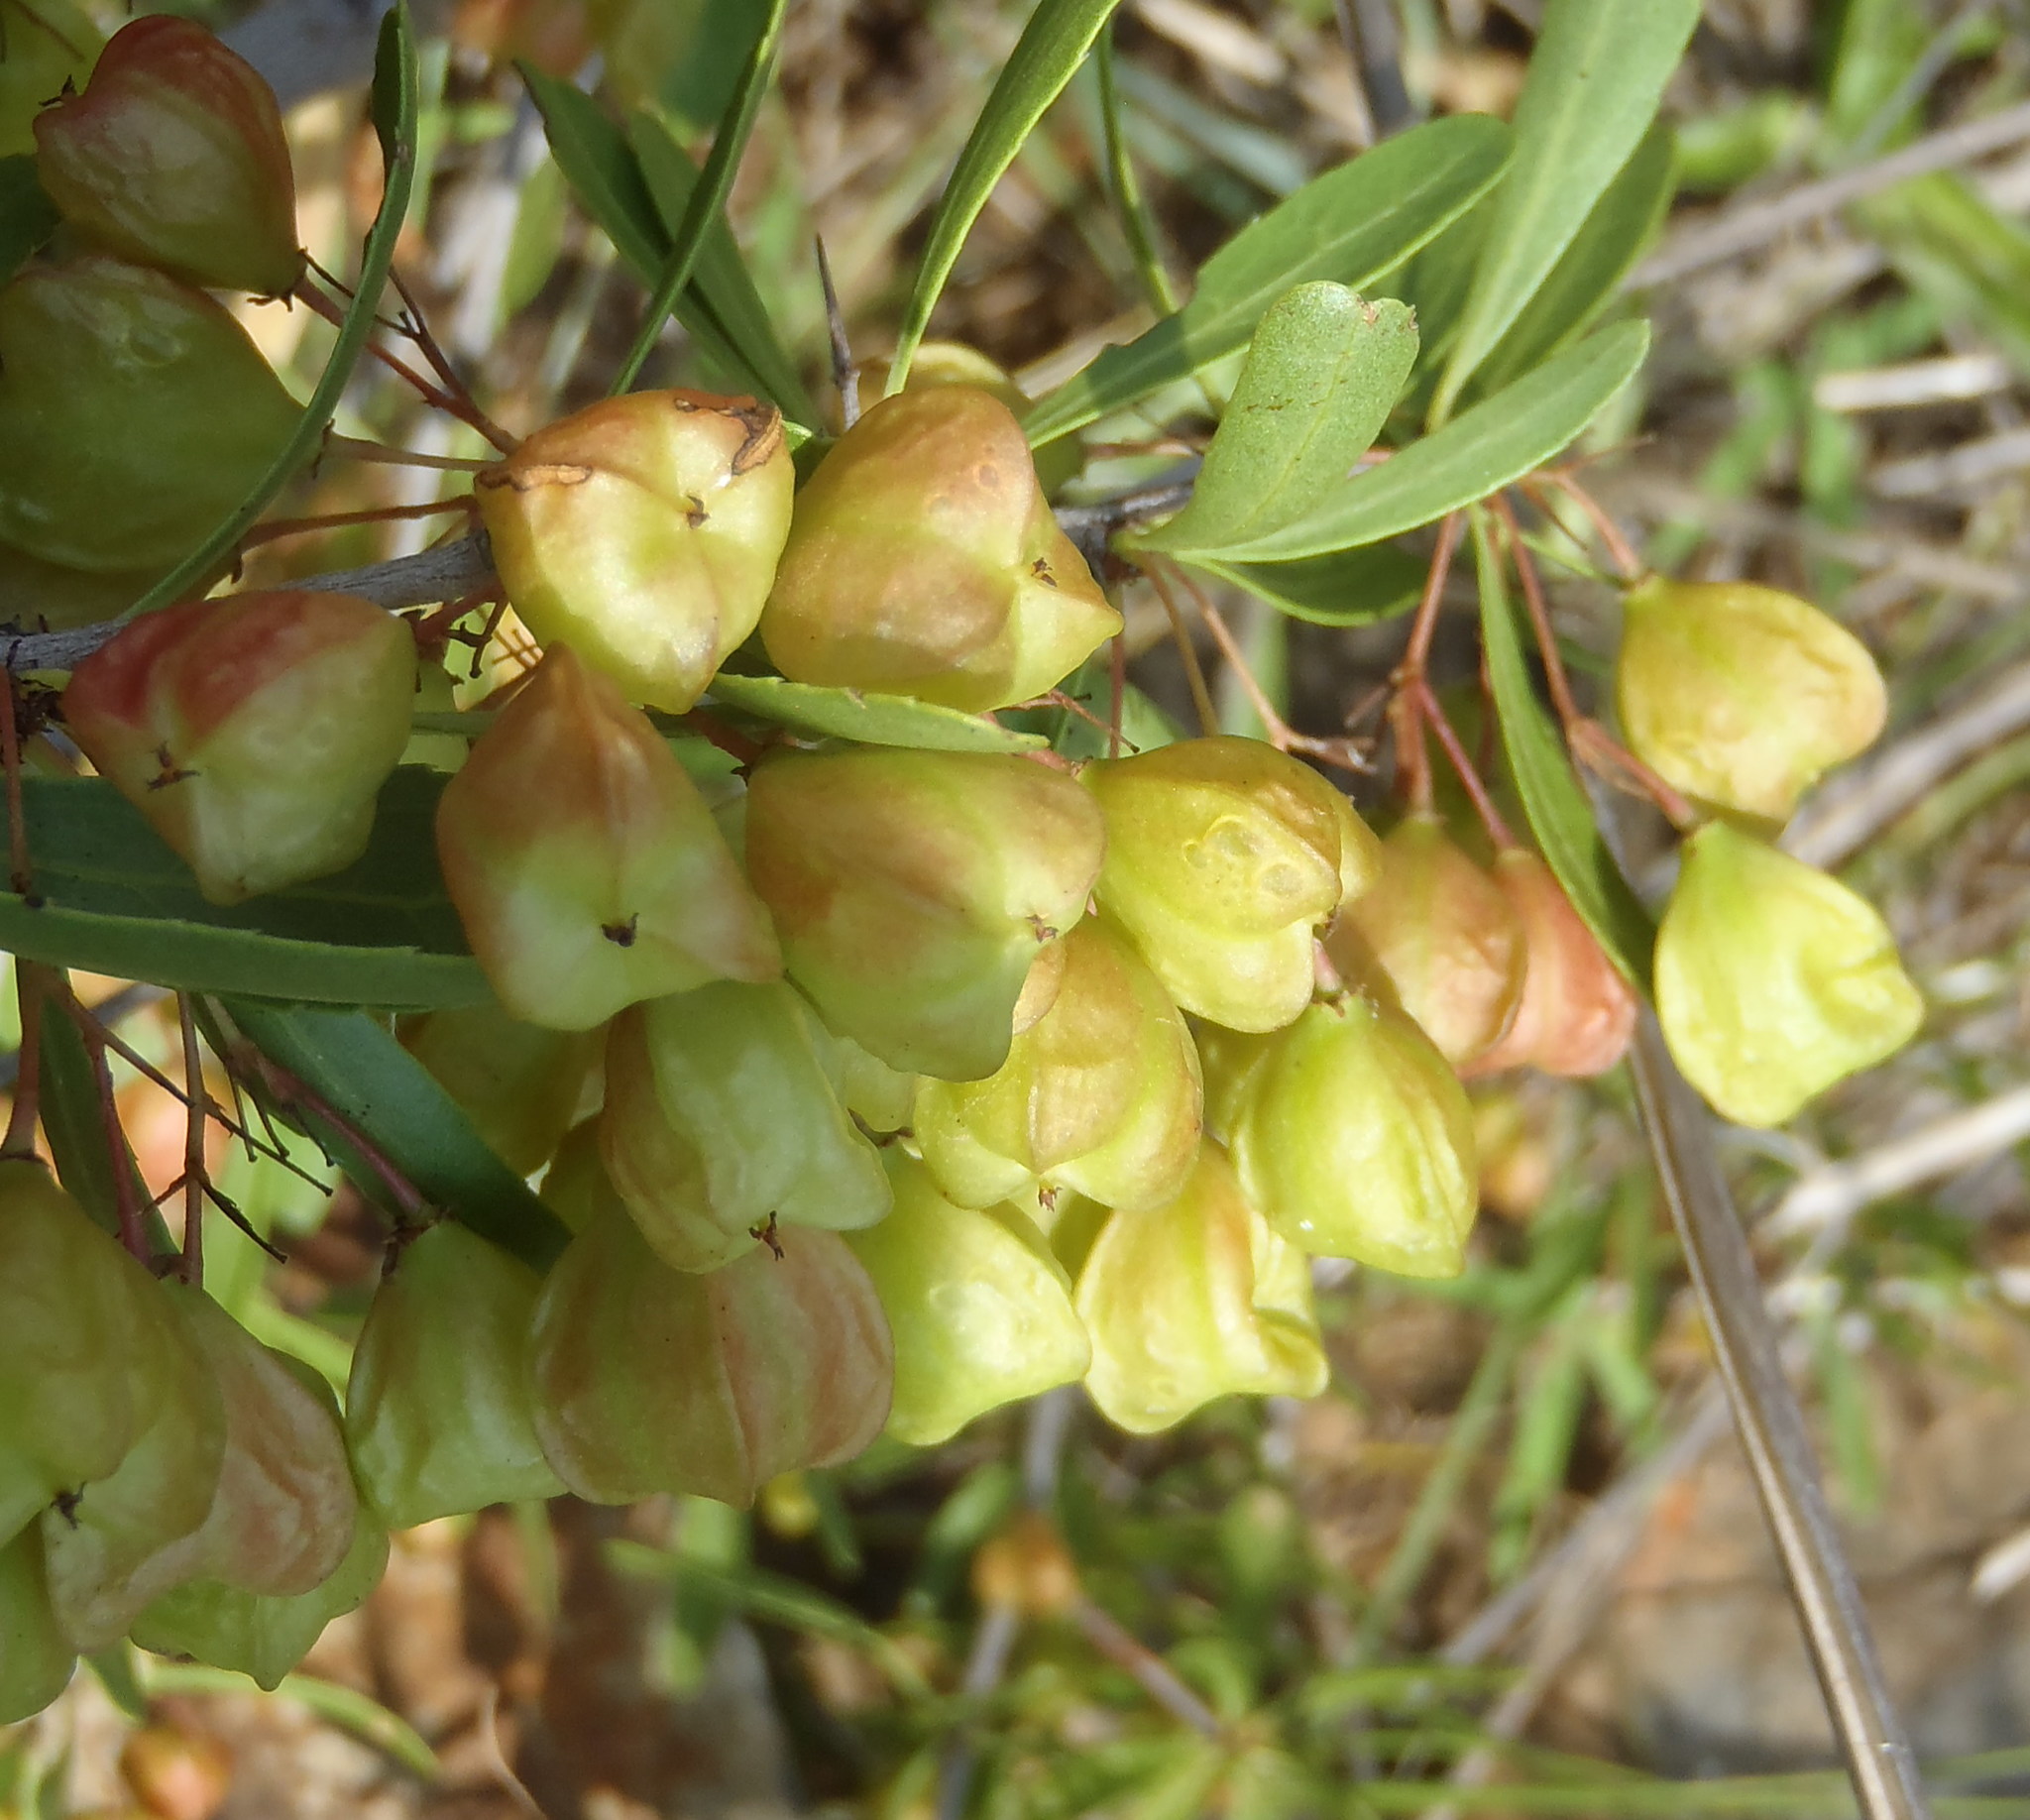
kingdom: Plantae
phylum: Tracheophyta
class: Magnoliopsida
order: Celastrales
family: Celastraceae
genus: Gymnosporia
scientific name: Gymnosporia tenuispina
